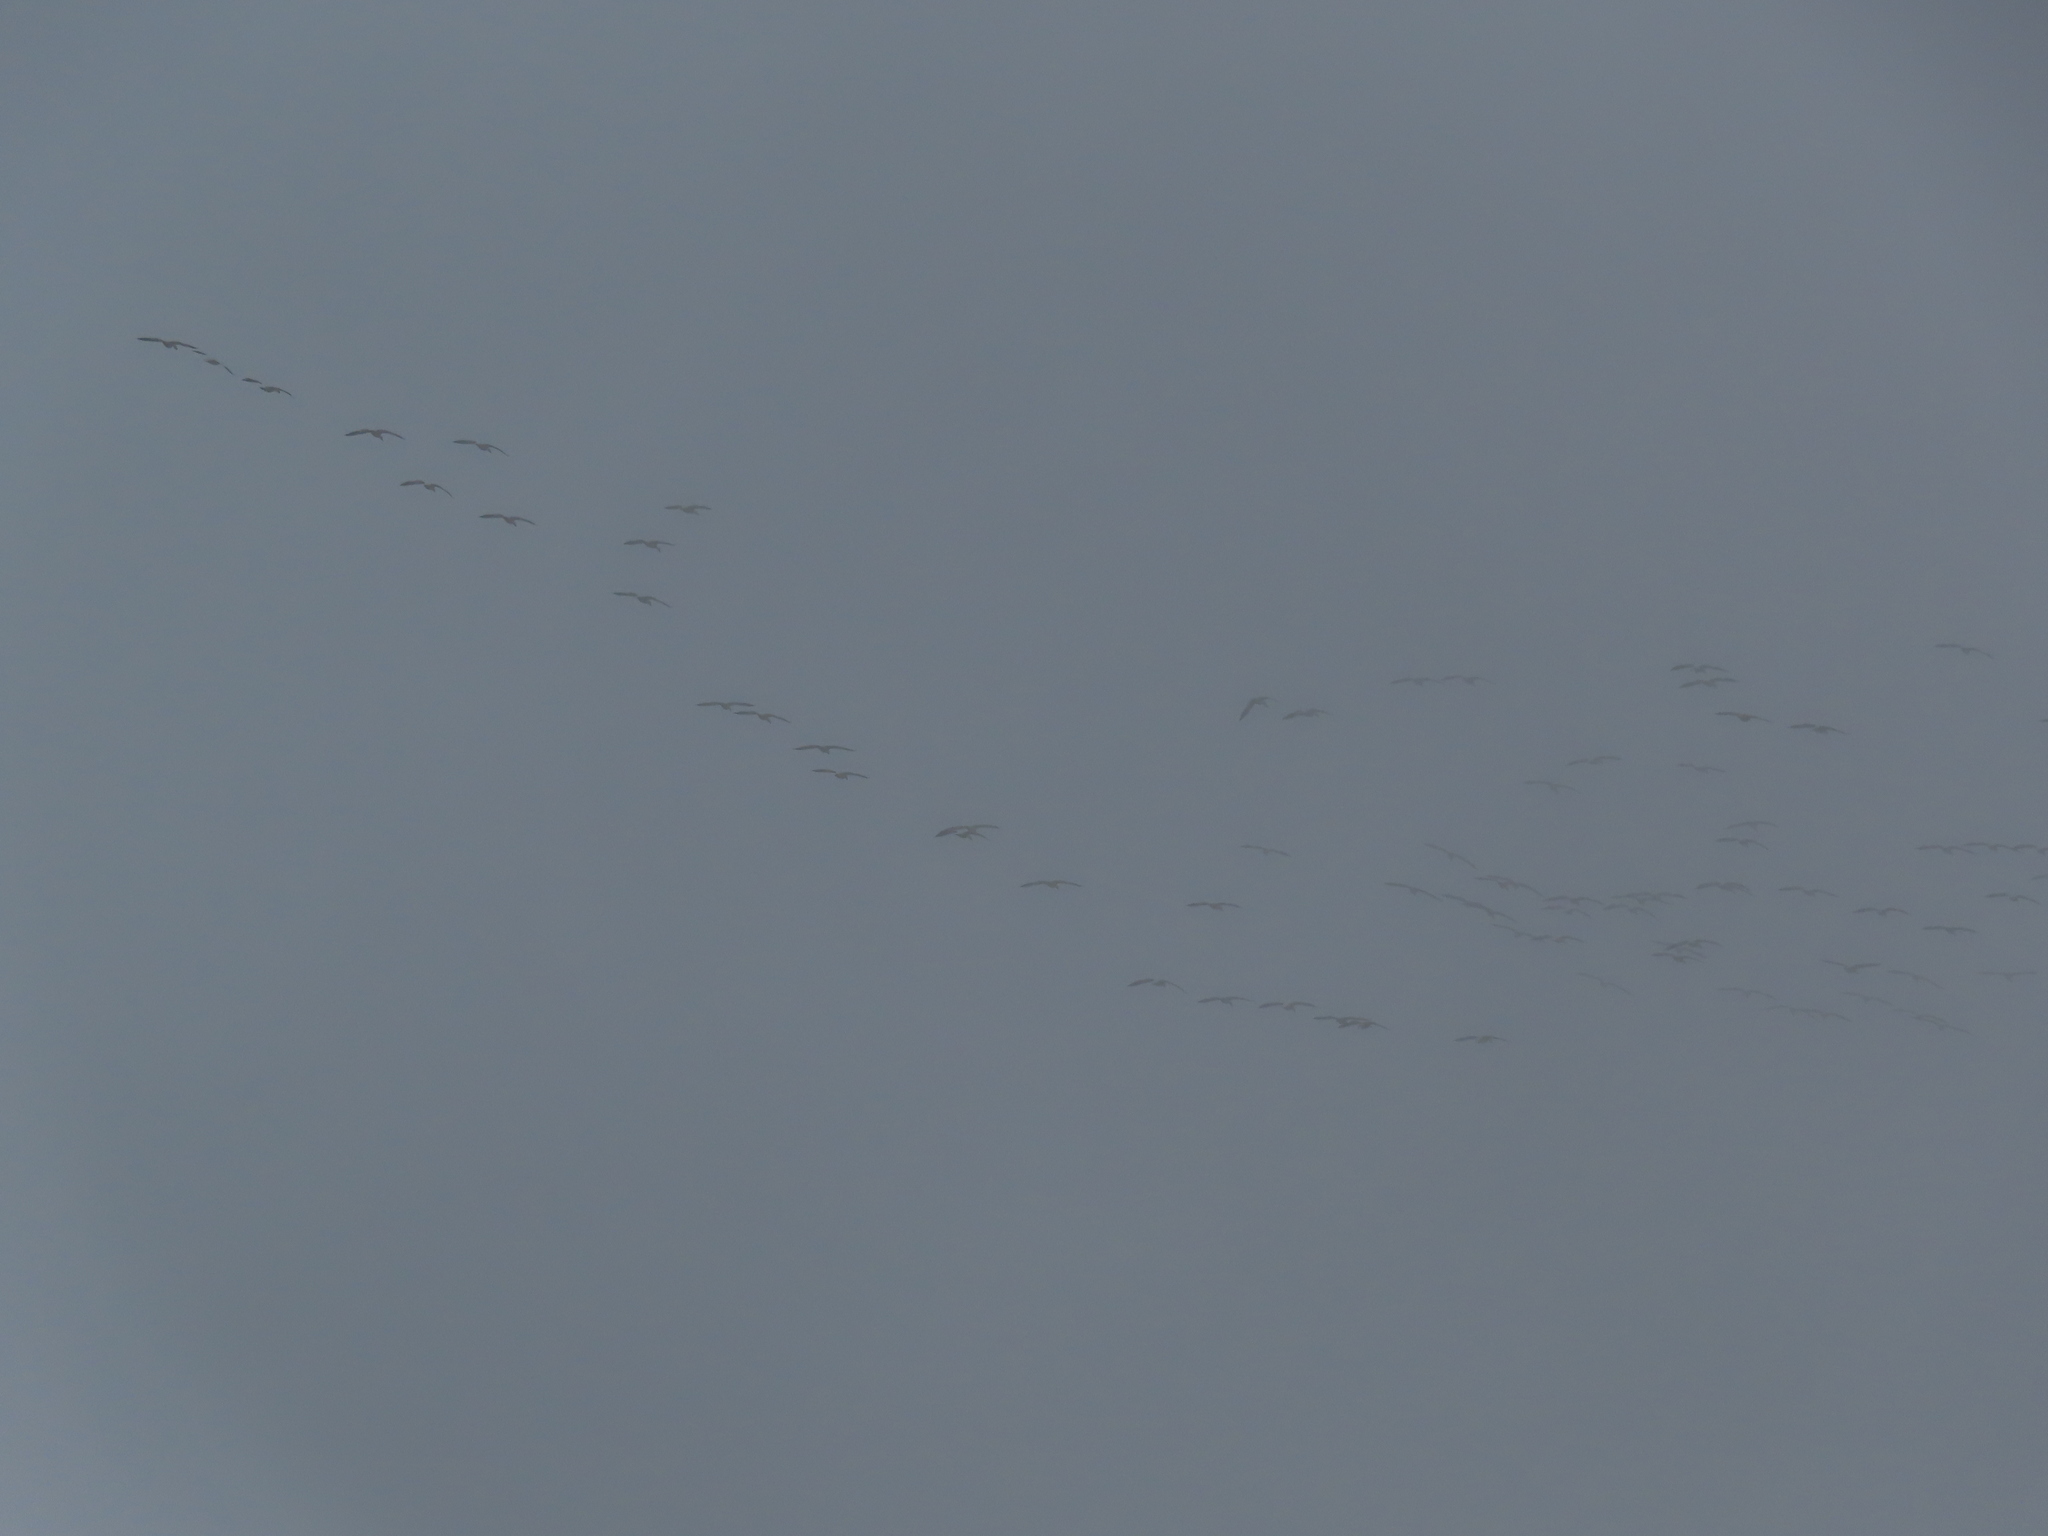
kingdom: Animalia
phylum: Chordata
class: Aves
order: Anseriformes
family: Anatidae
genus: Anser
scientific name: Anser caerulescens
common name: Snow goose
